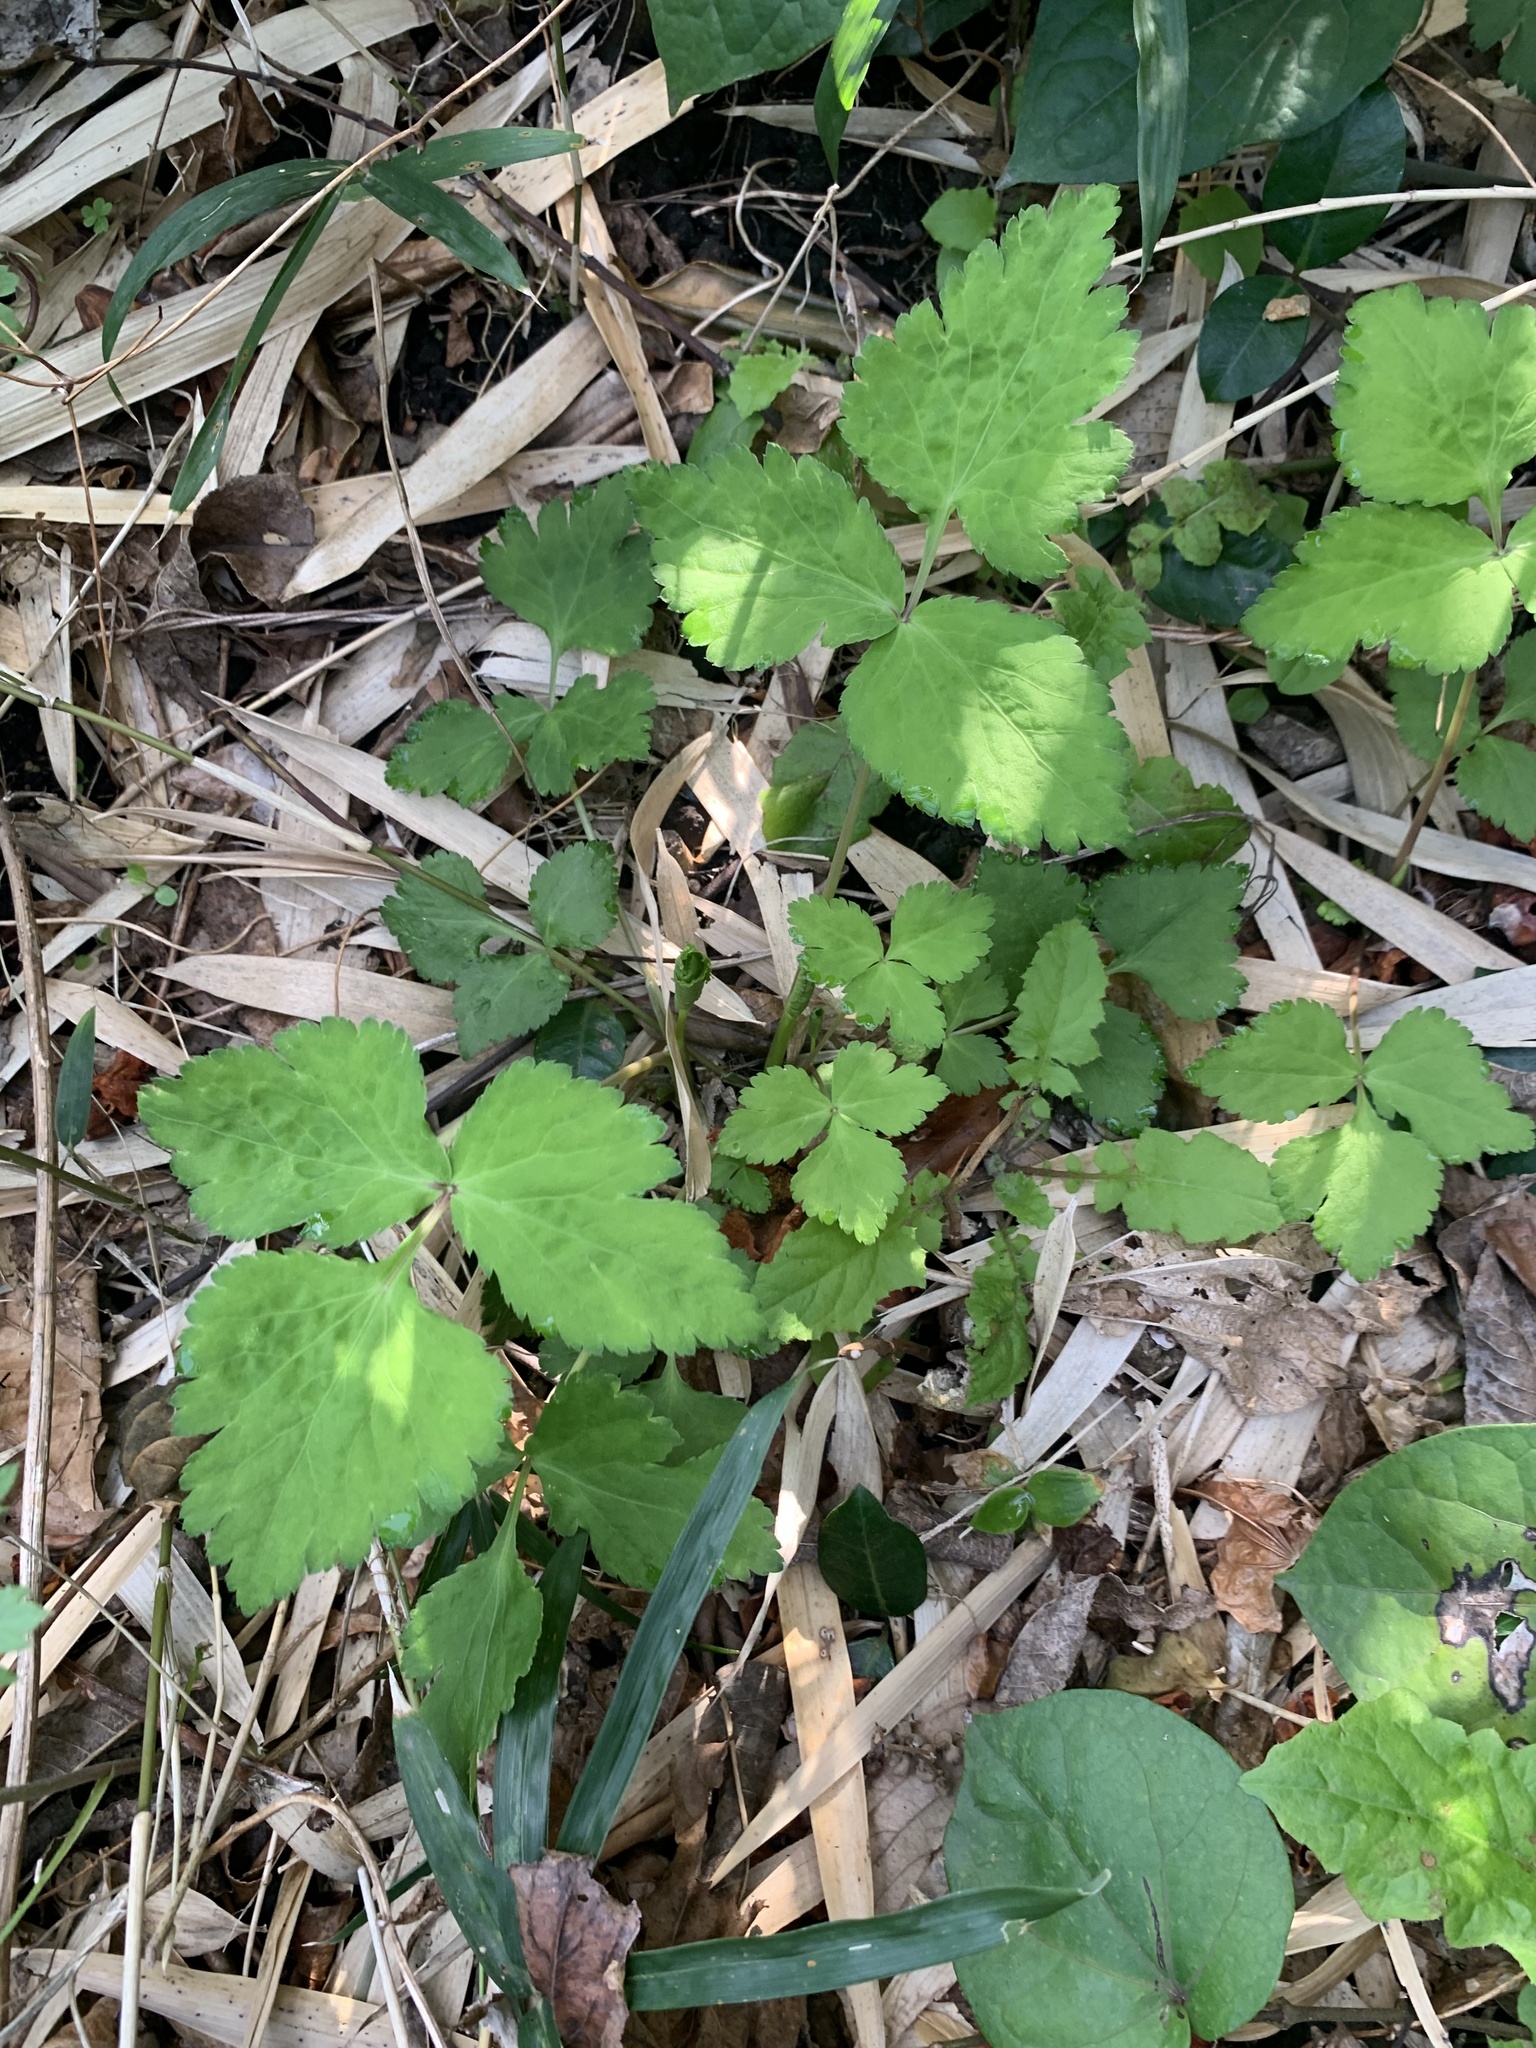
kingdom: Plantae
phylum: Tracheophyta
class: Magnoliopsida
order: Apiales
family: Apiaceae
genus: Cryptotaenia
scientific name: Cryptotaenia japonica
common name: Japanese cryptotaenia
